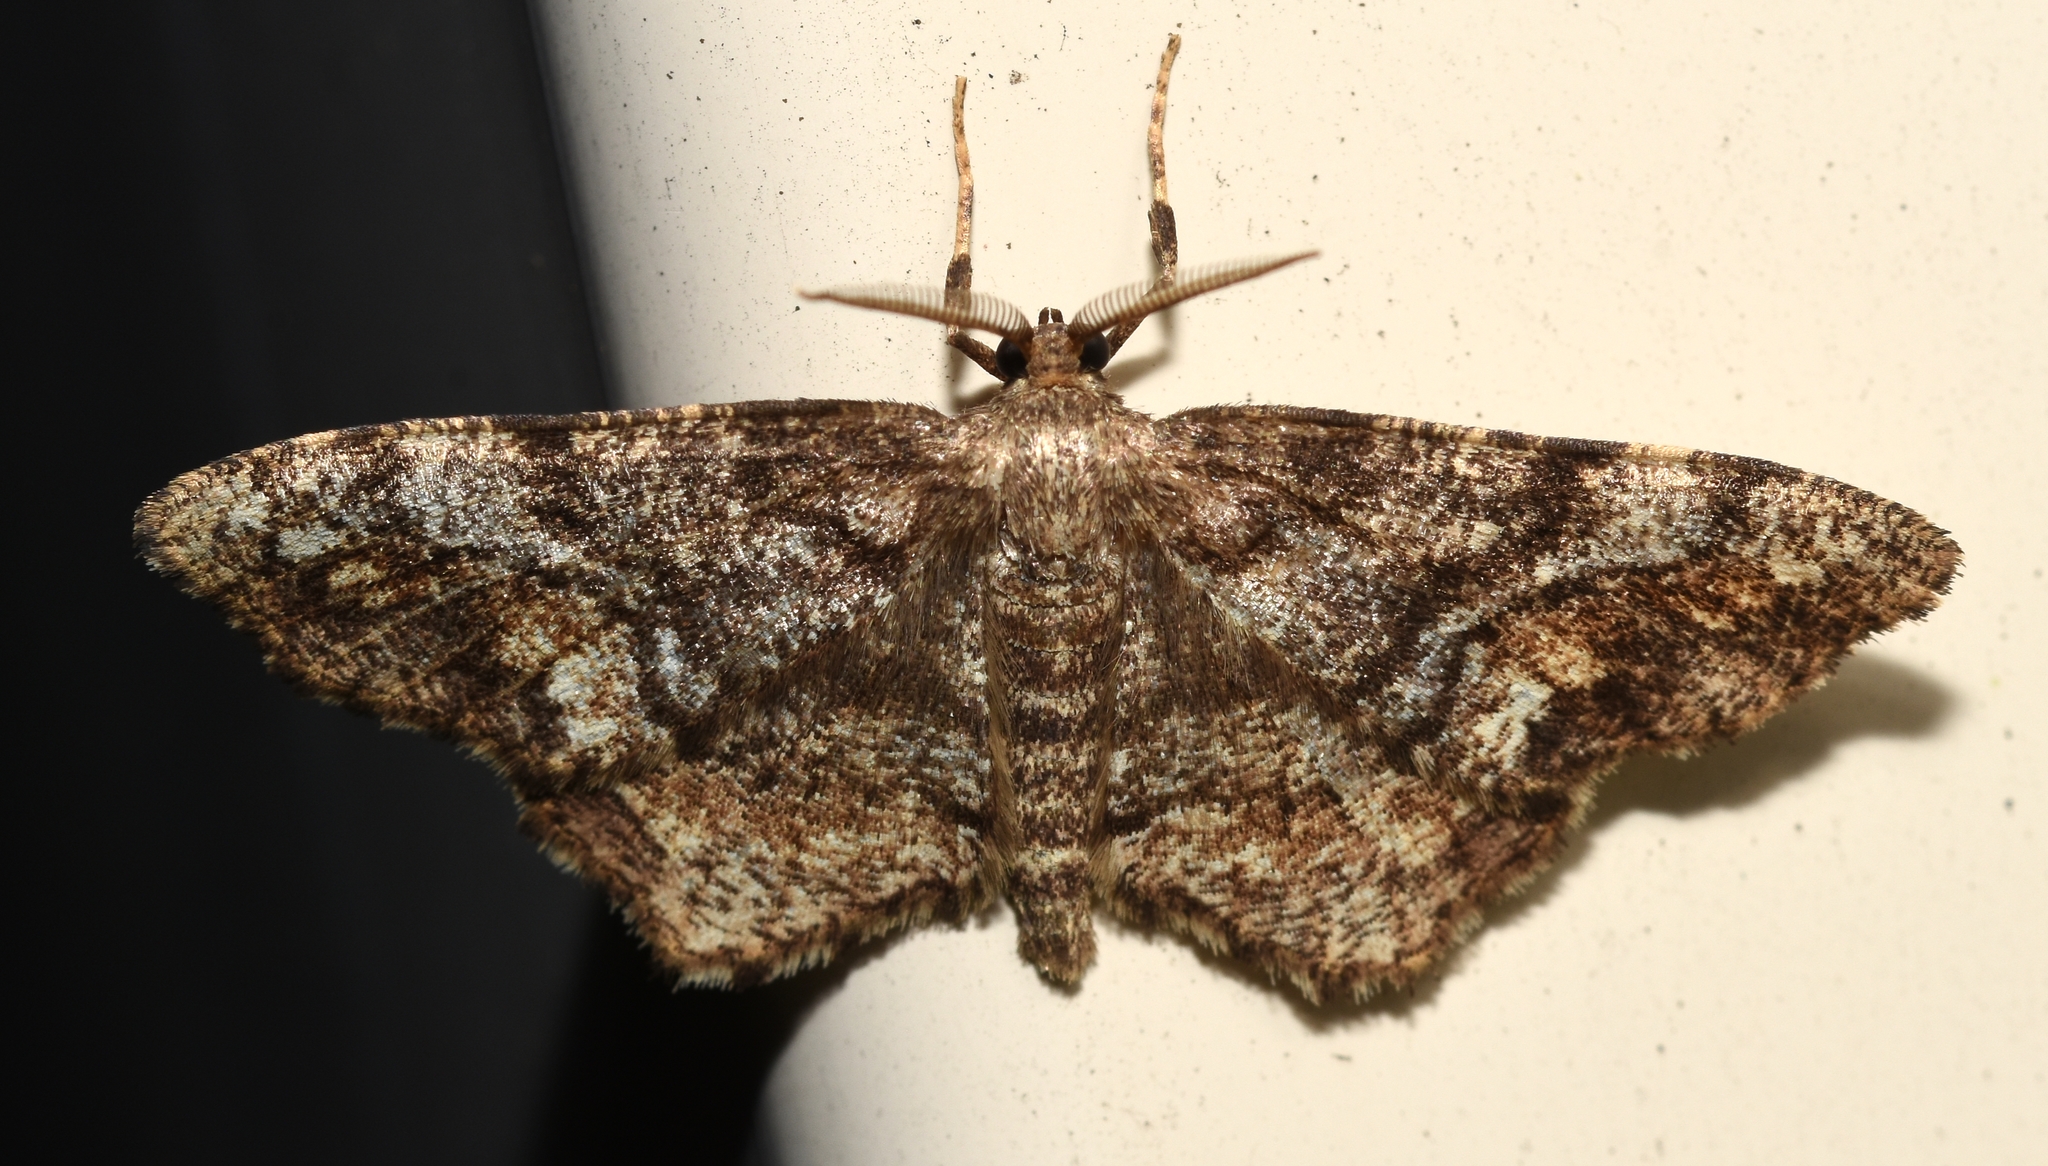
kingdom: Animalia
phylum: Arthropoda
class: Insecta
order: Lepidoptera
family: Geometridae
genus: Hypagyrtis
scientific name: Hypagyrtis unipunctata
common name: One-spotted variant
